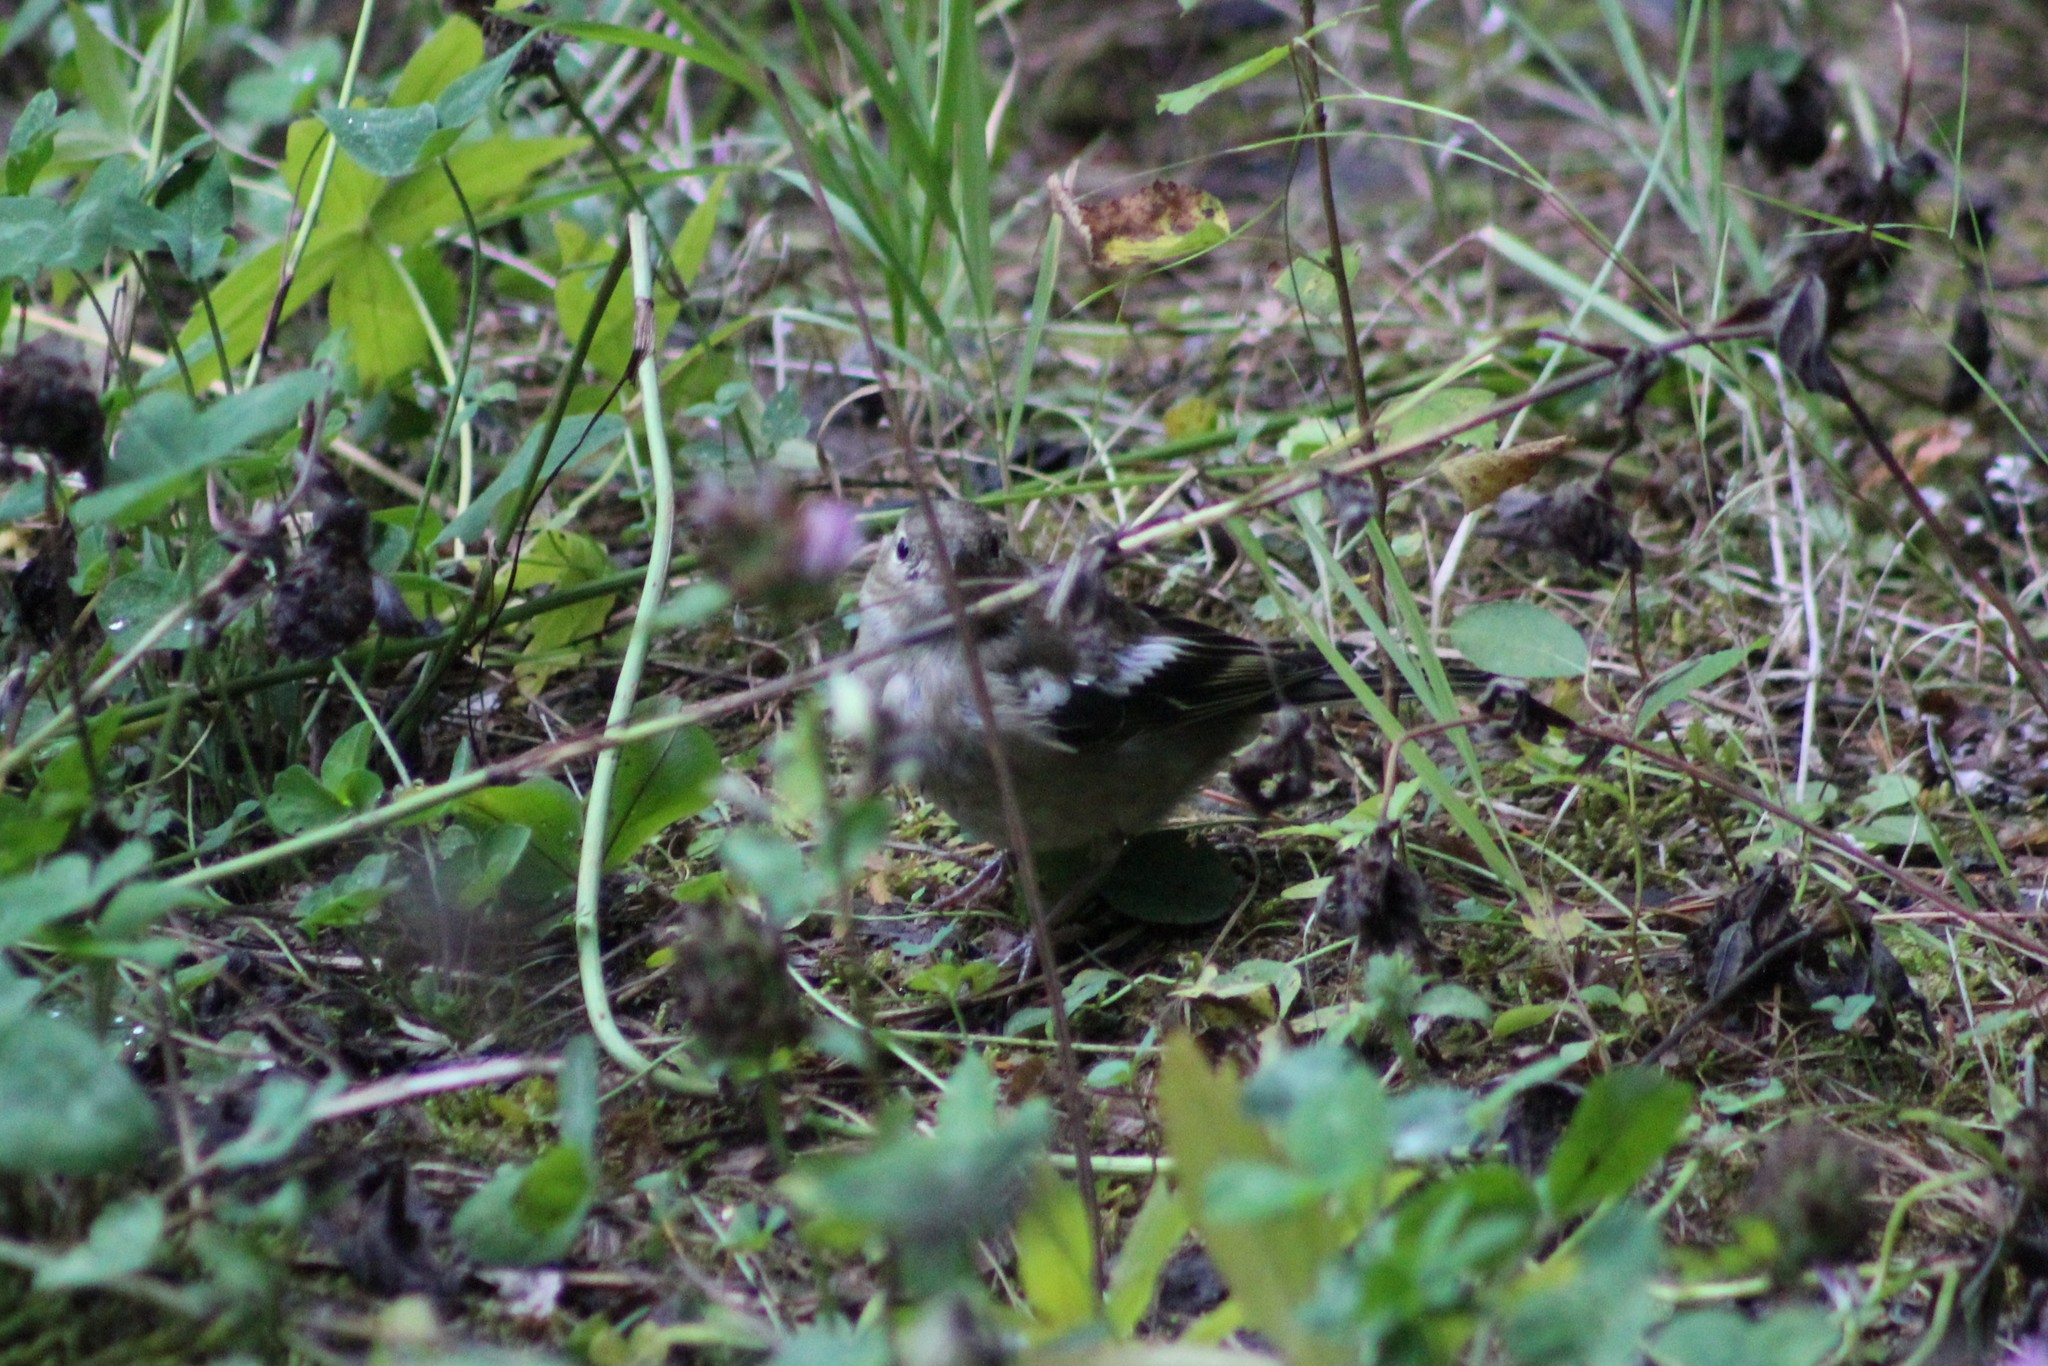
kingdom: Animalia
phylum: Chordata
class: Aves
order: Passeriformes
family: Fringillidae
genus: Fringilla
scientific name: Fringilla coelebs
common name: Common chaffinch
